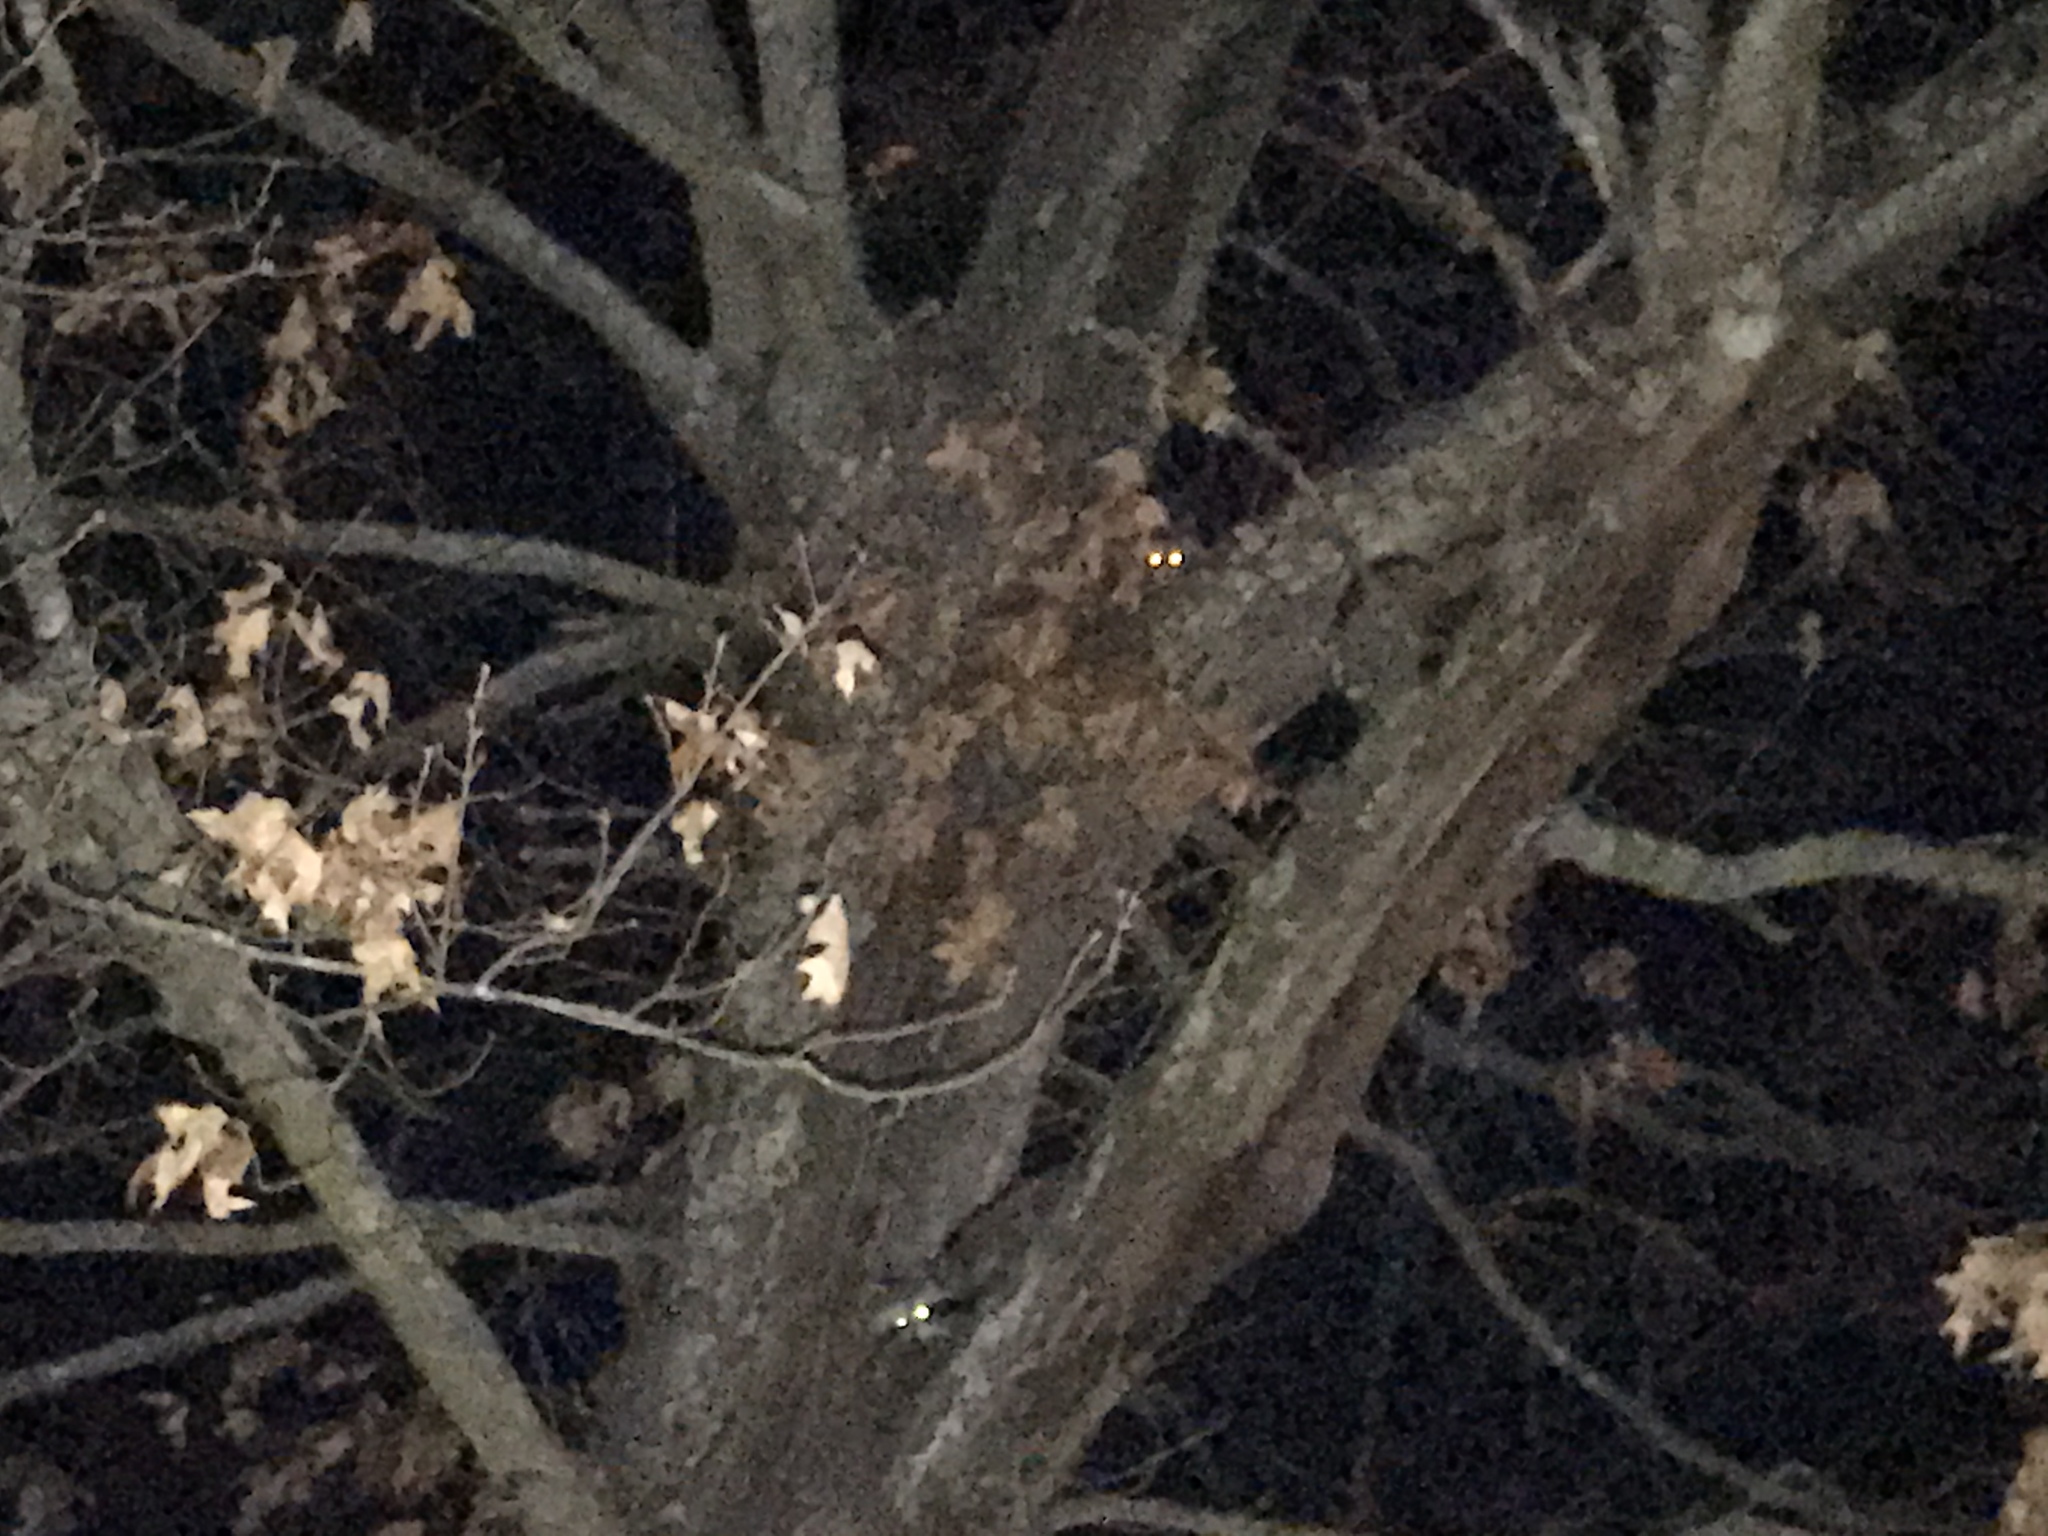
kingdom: Animalia
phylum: Chordata
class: Mammalia
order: Carnivora
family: Procyonidae
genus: Procyon
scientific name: Procyon lotor
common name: Raccoon
